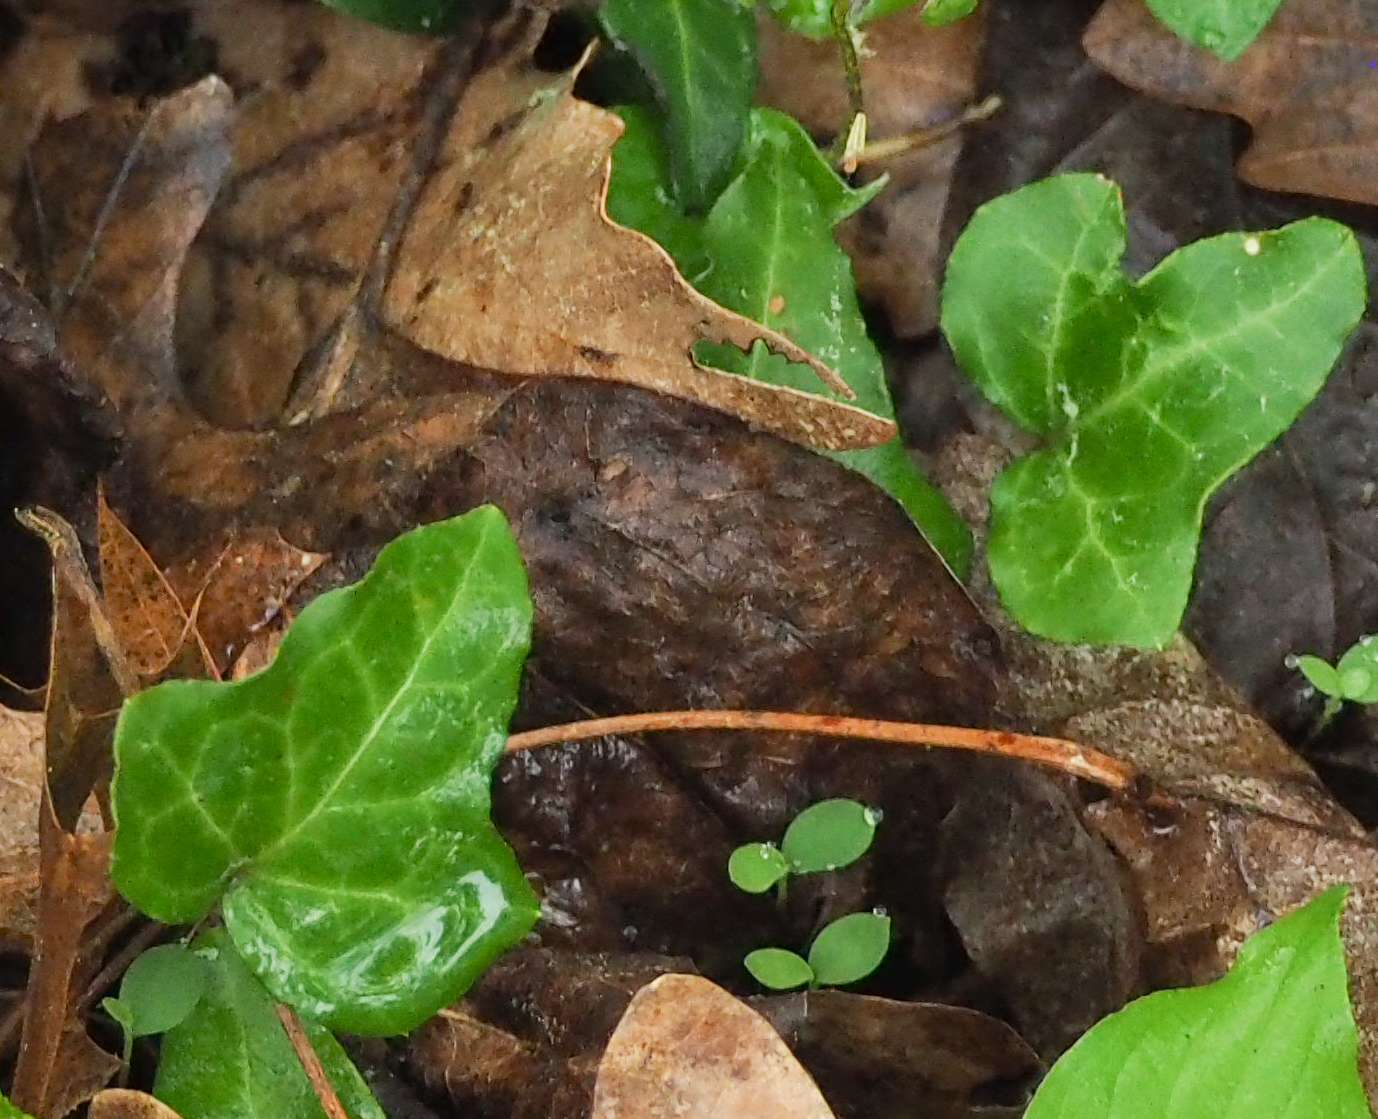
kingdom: Plantae
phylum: Tracheophyta
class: Magnoliopsida
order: Apiales
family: Araliaceae
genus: Hedera
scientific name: Hedera helix
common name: Ivy
